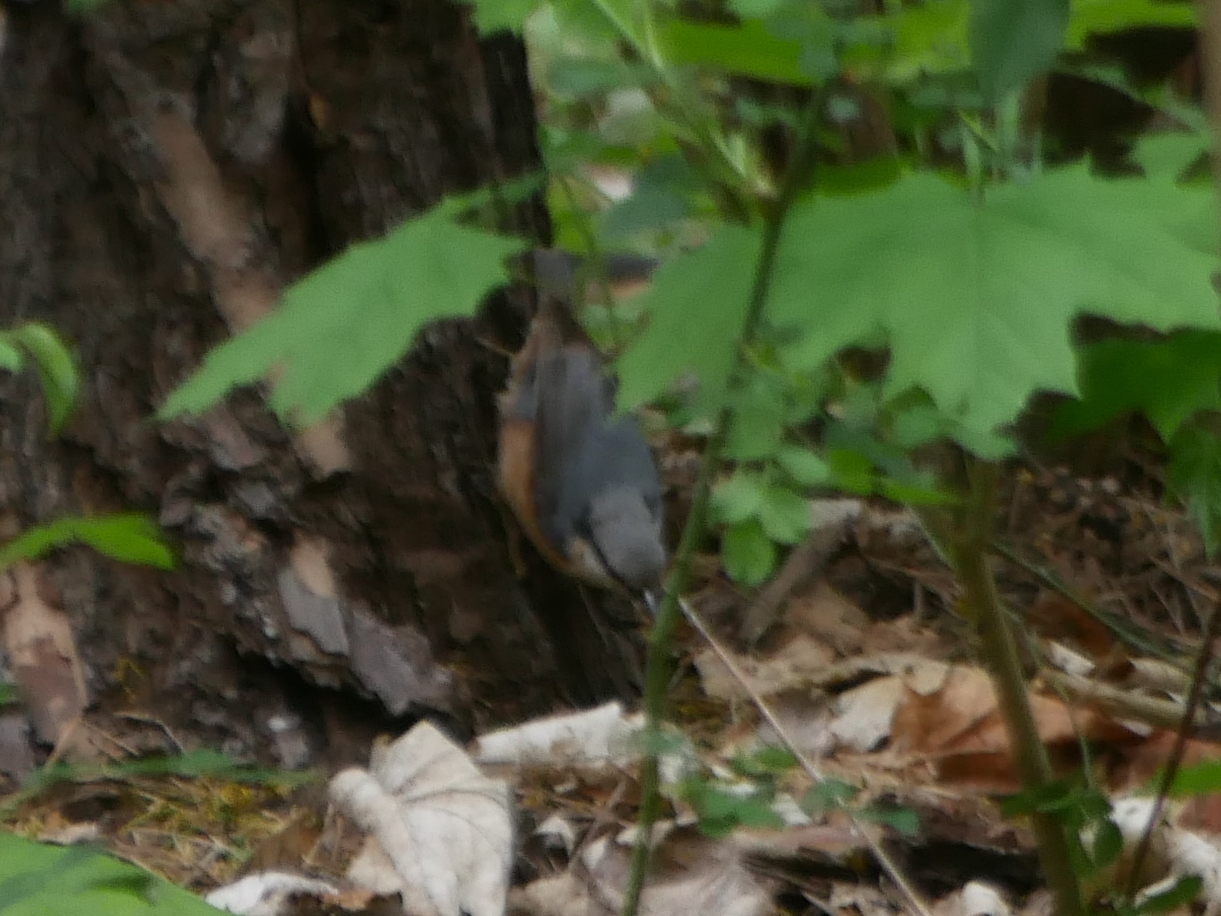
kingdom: Animalia
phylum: Chordata
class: Aves
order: Passeriformes
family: Sittidae
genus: Sitta
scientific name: Sitta europaea
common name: Eurasian nuthatch
